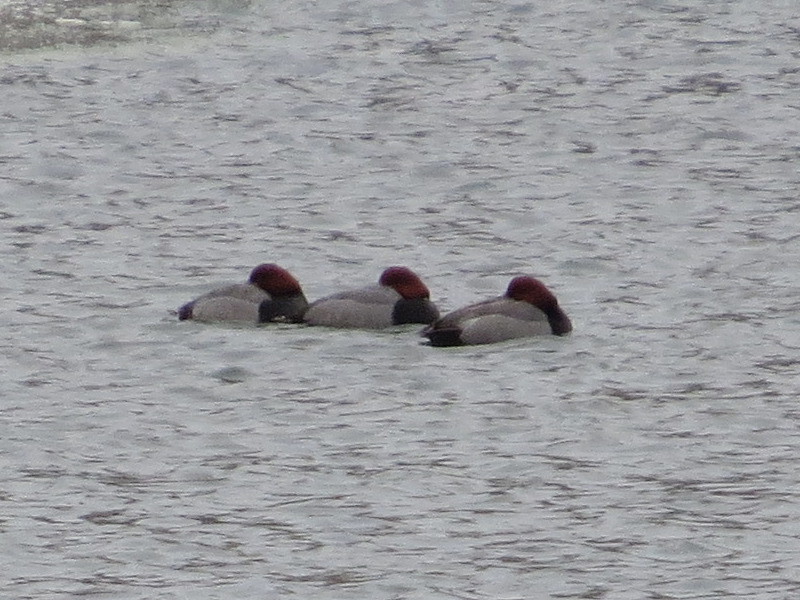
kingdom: Animalia
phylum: Chordata
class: Aves
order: Anseriformes
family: Anatidae
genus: Aythya
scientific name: Aythya americana
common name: Redhead
